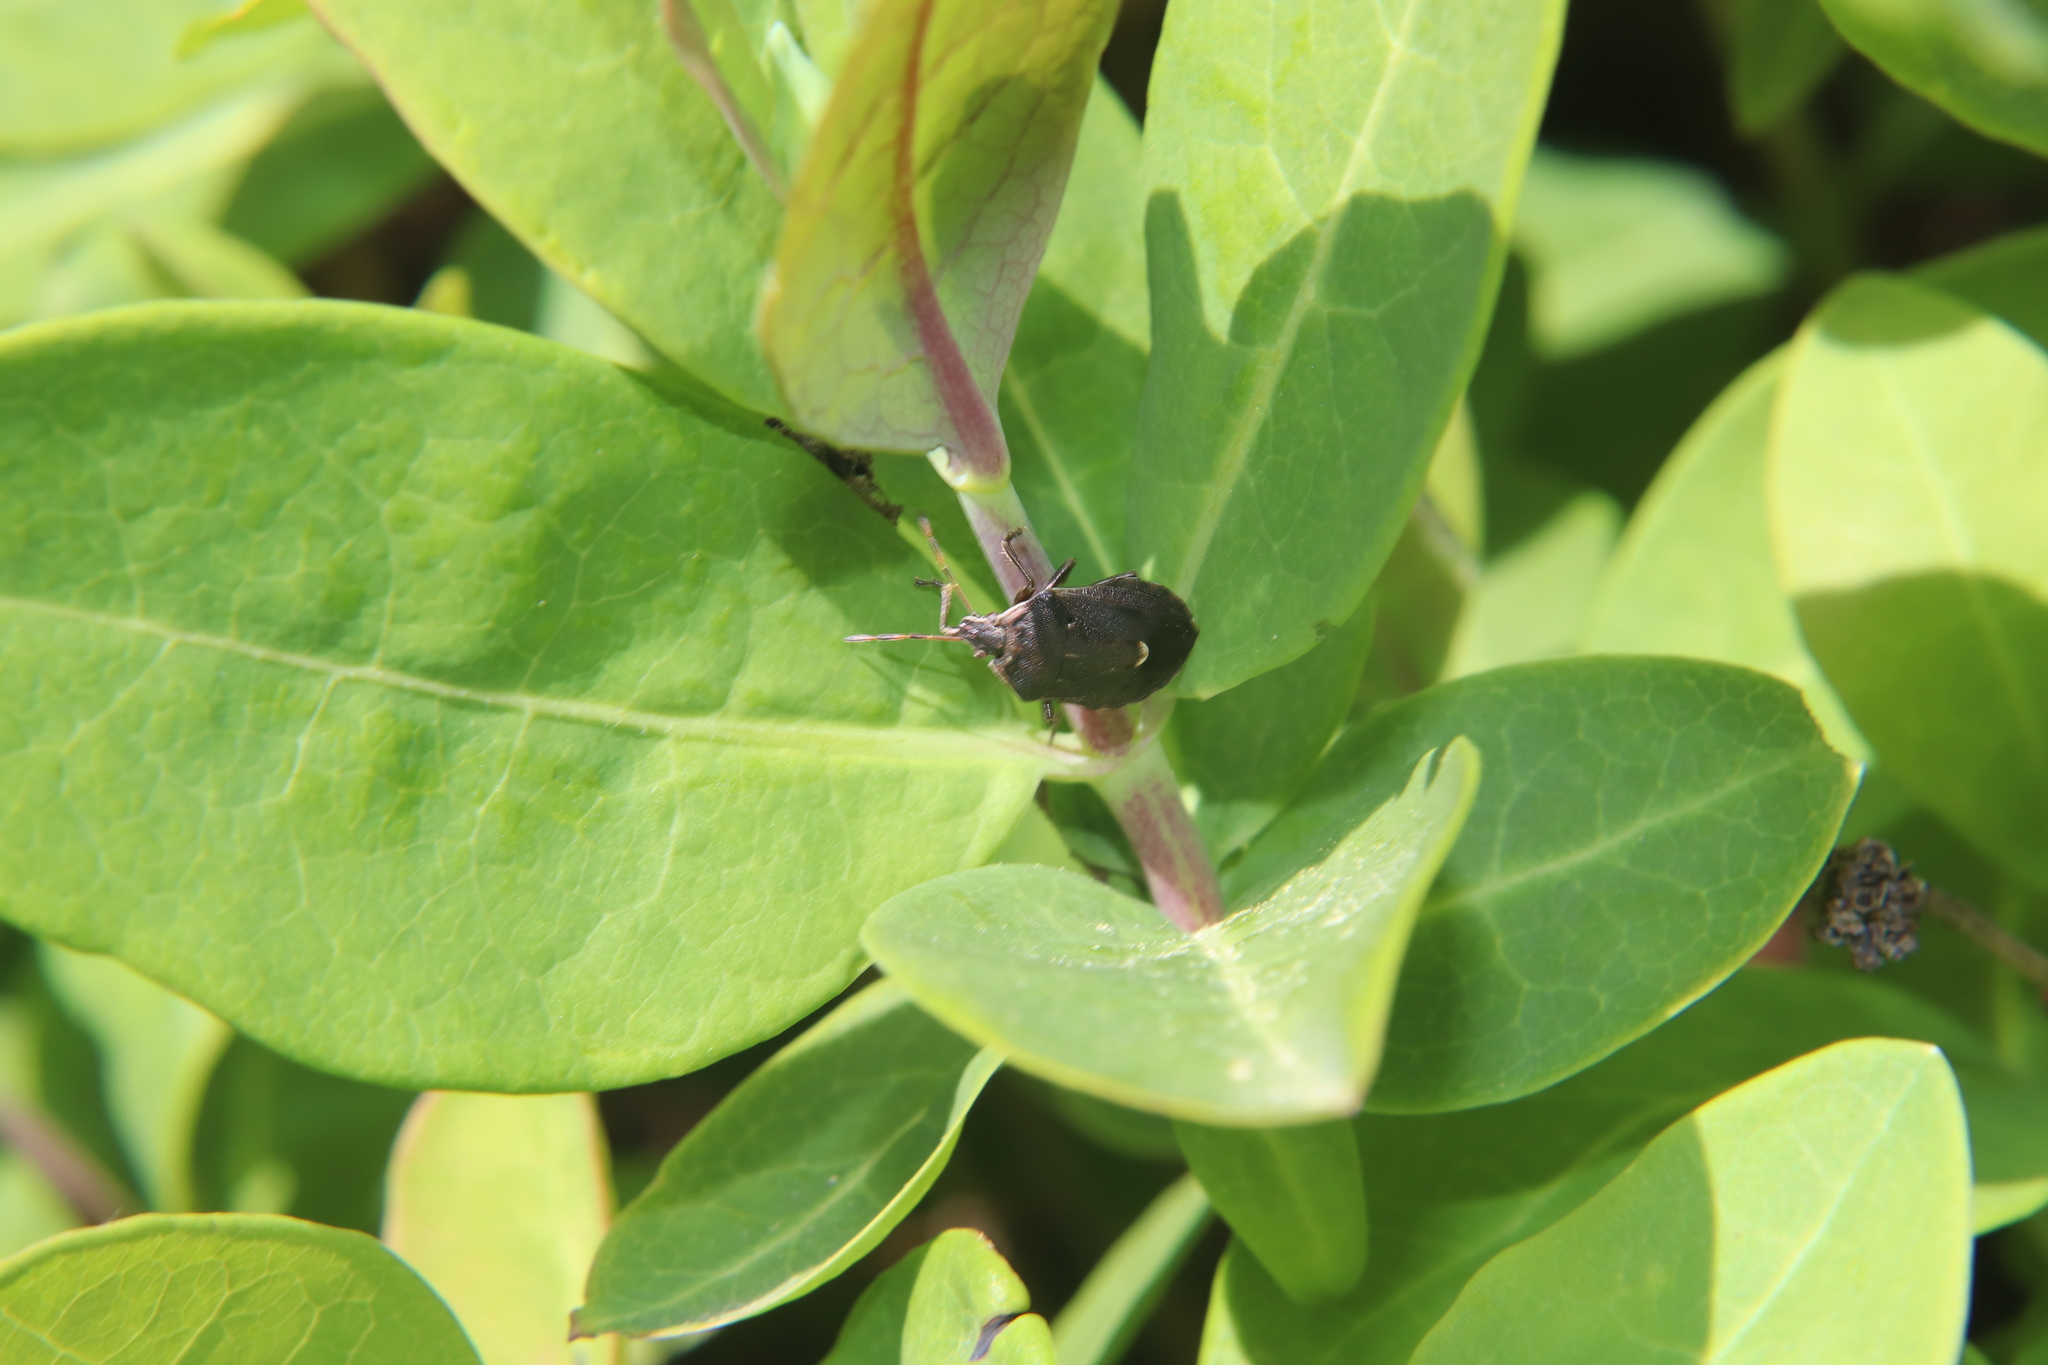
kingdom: Animalia
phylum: Arthropoda
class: Insecta
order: Hemiptera
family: Pentatomidae
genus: Cermatulus
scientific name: Cermatulus nasalis
